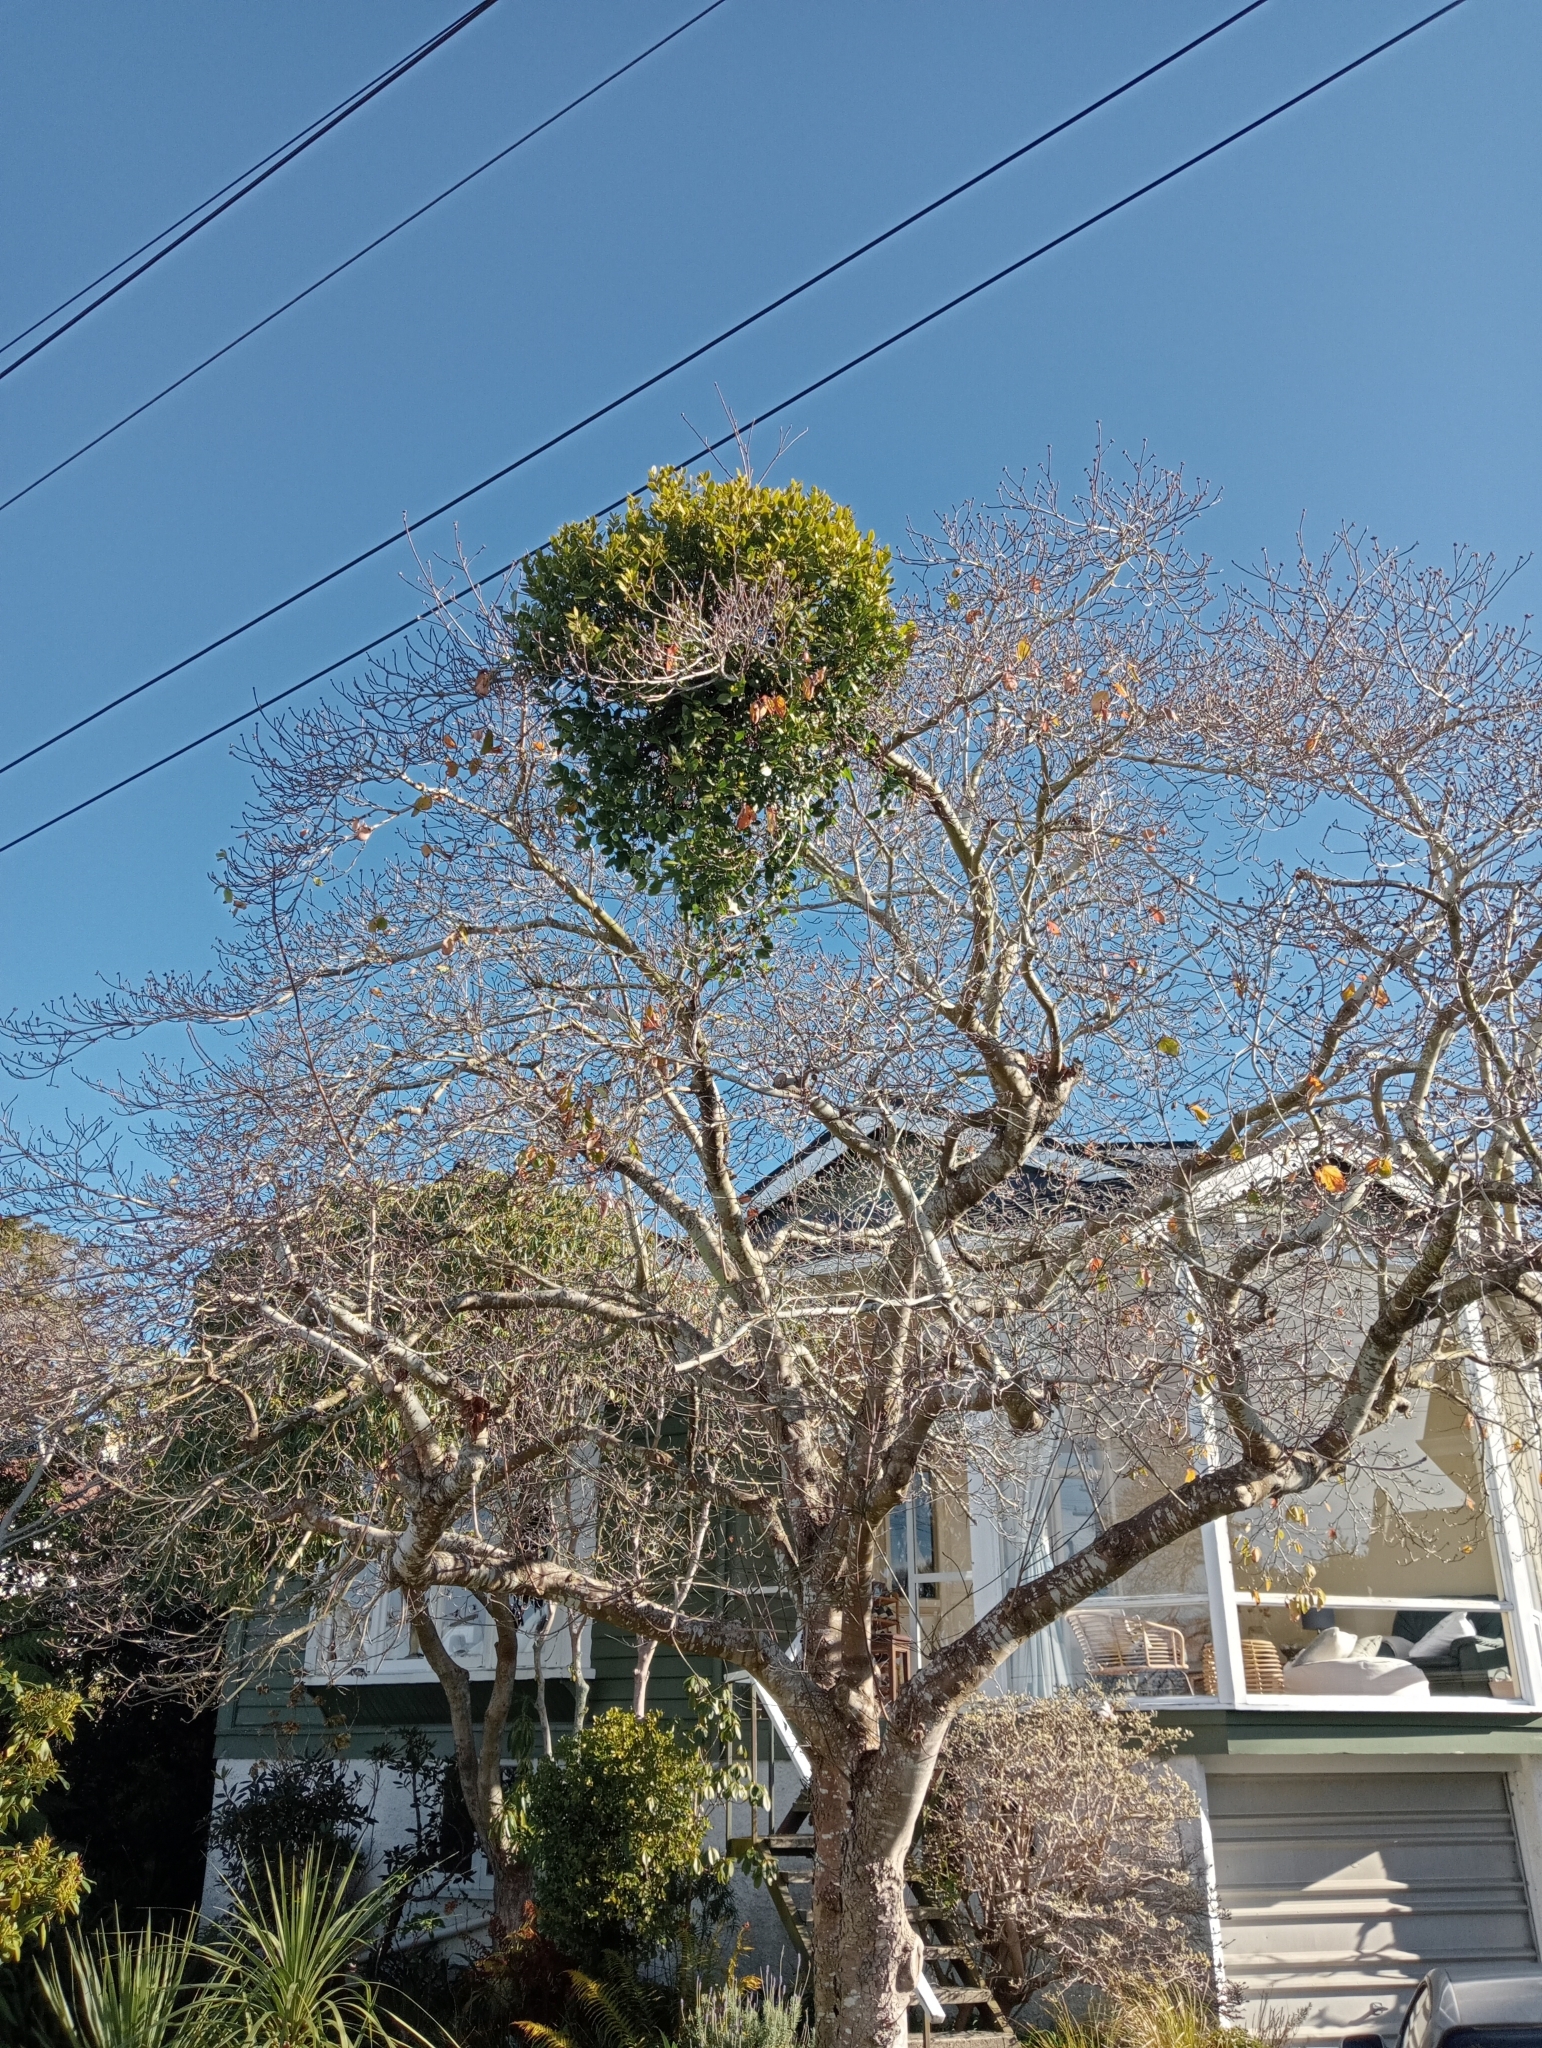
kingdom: Plantae
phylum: Tracheophyta
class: Magnoliopsida
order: Santalales
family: Loranthaceae
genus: Ileostylus
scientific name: Ileostylus micranthus
